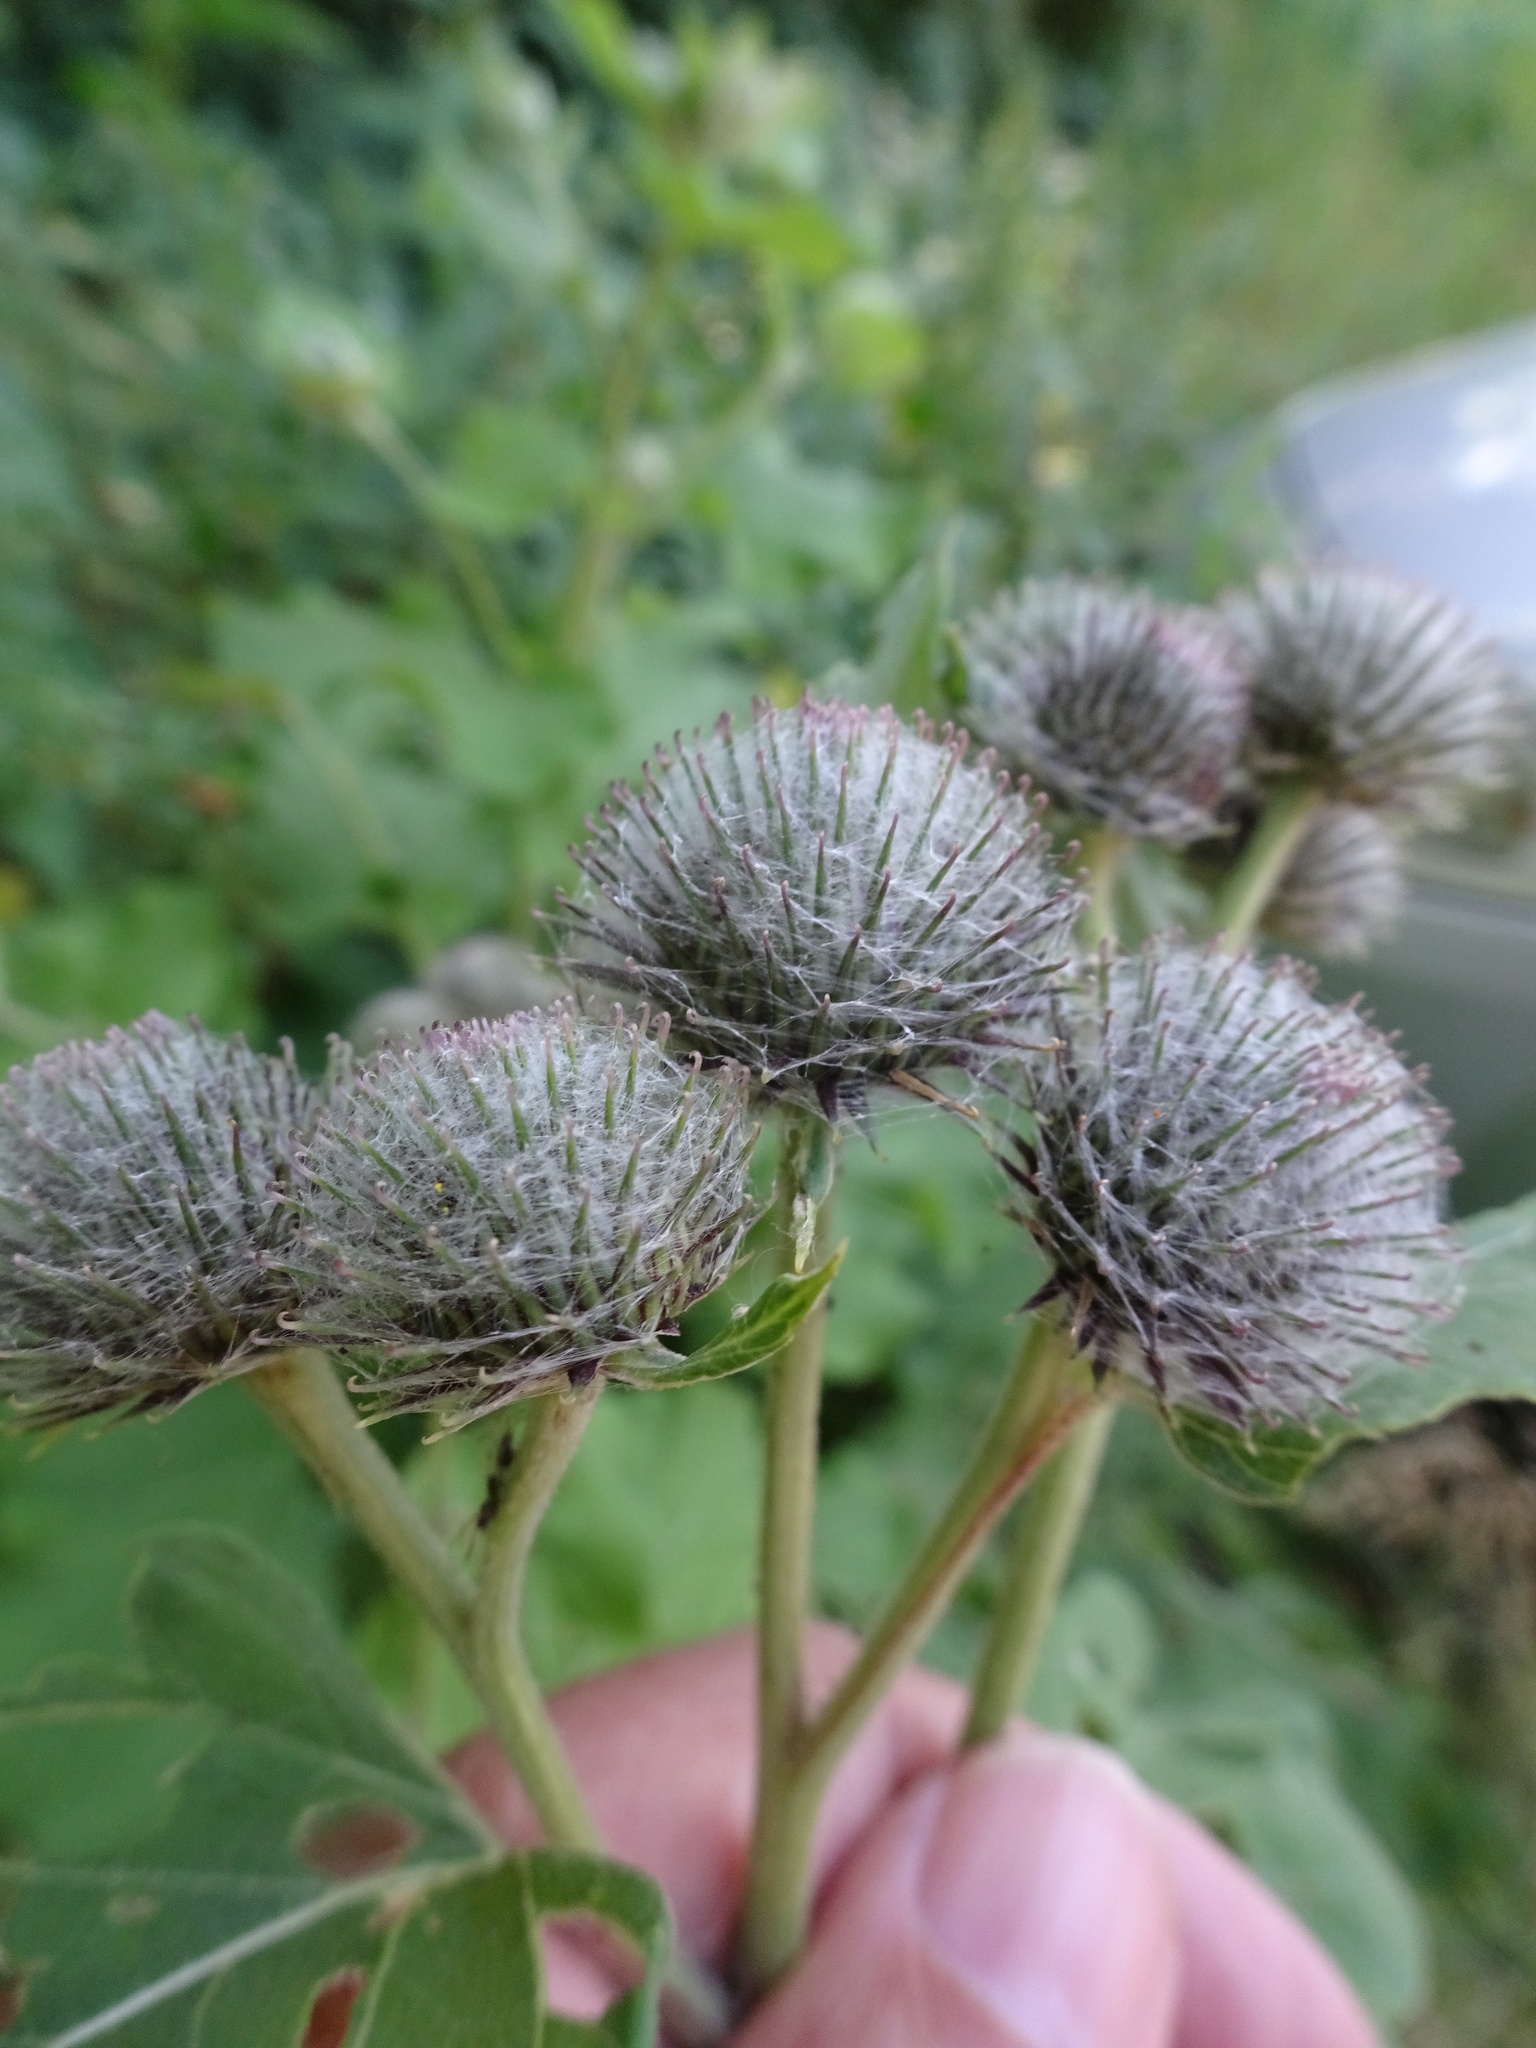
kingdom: Plantae
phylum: Tracheophyta
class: Magnoliopsida
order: Asterales
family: Asteraceae
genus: Arctium
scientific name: Arctium tomentosum
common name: Woolly burdock
